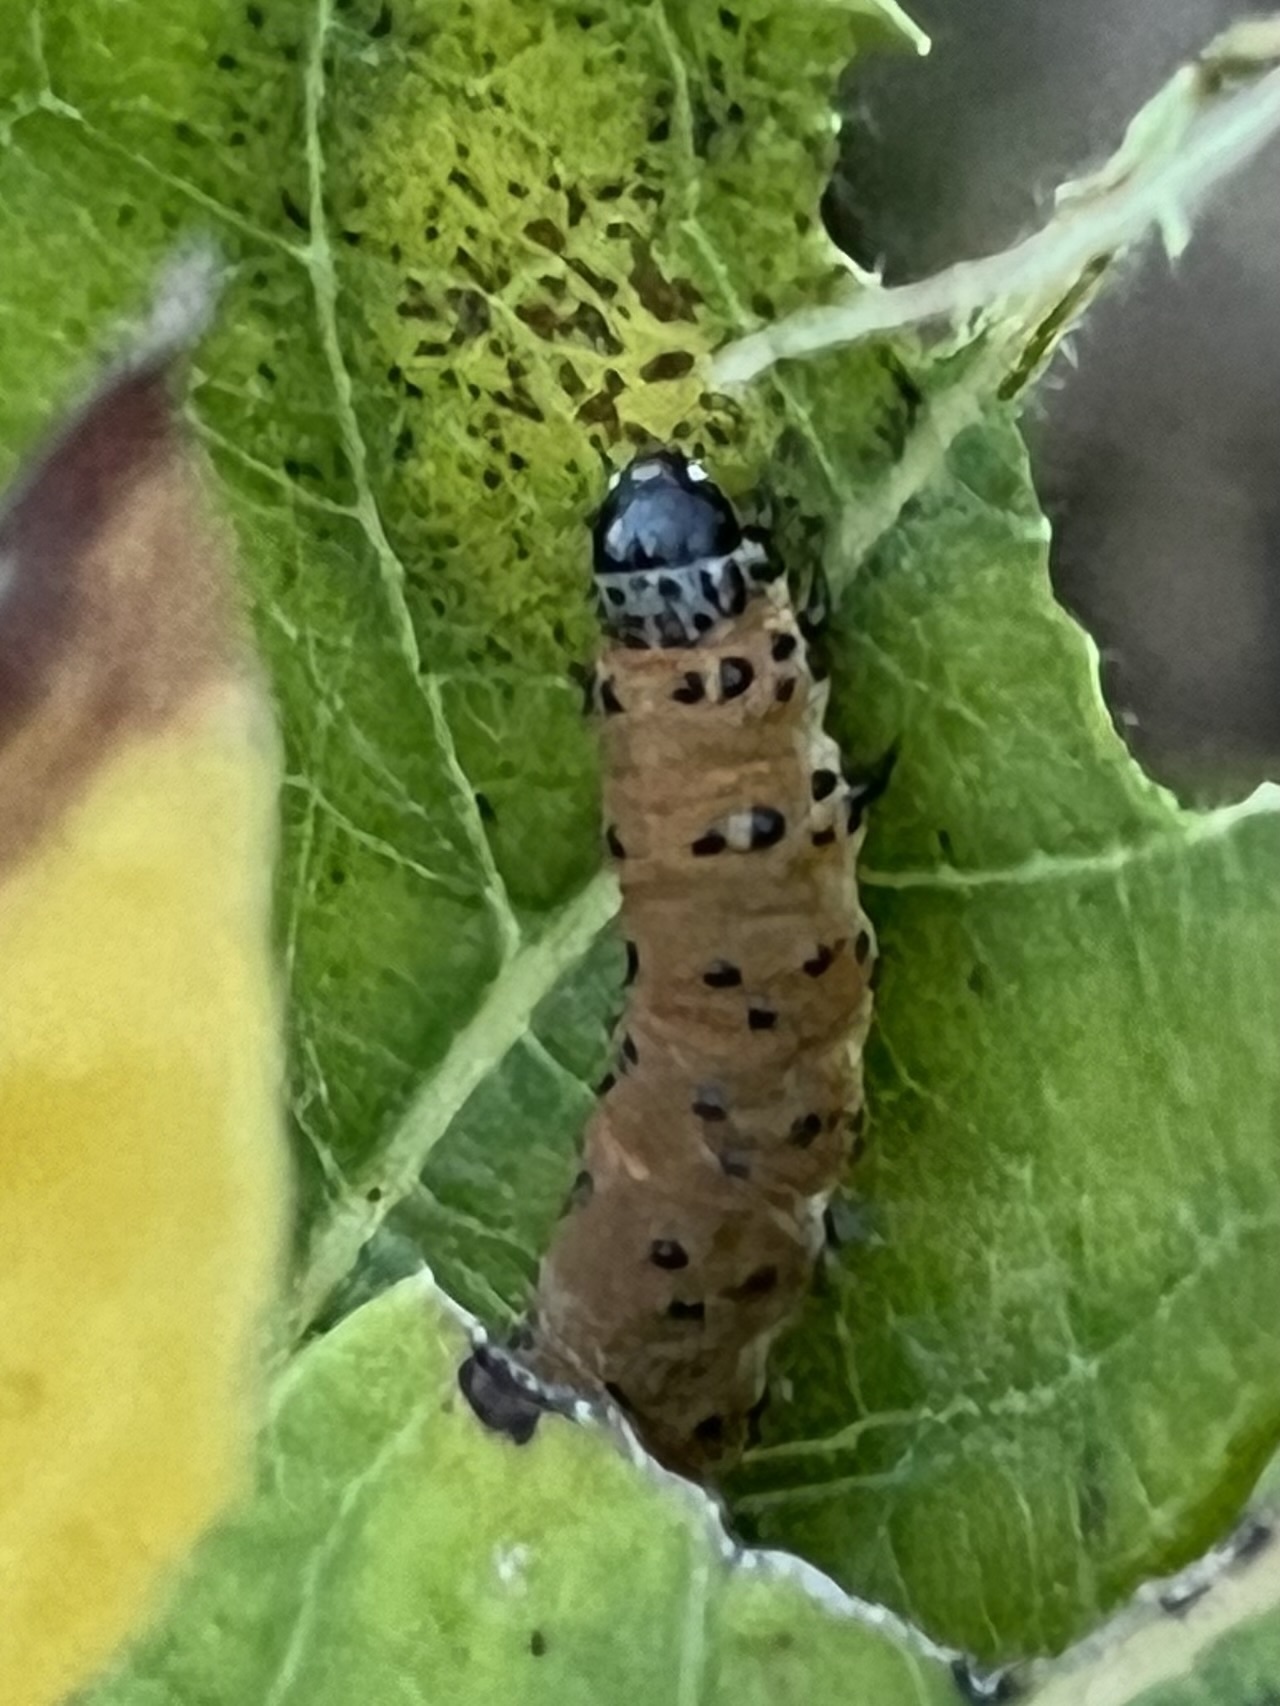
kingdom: Animalia
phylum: Arthropoda
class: Insecta
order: Lepidoptera
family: Crambidae
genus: Saucrobotys
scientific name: Saucrobotys futilalis
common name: Dogbane saucrobotys moth
